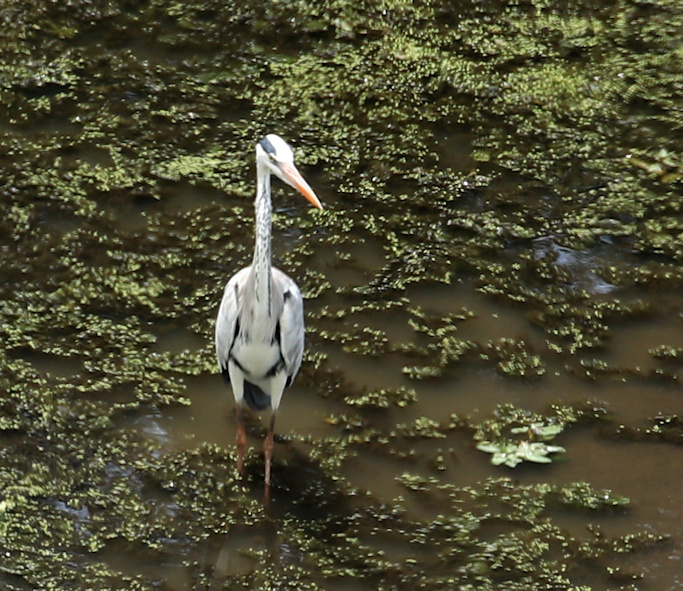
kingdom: Animalia
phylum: Chordata
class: Aves
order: Pelecaniformes
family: Ardeidae
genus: Ardea
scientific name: Ardea cinerea
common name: Grey heron
